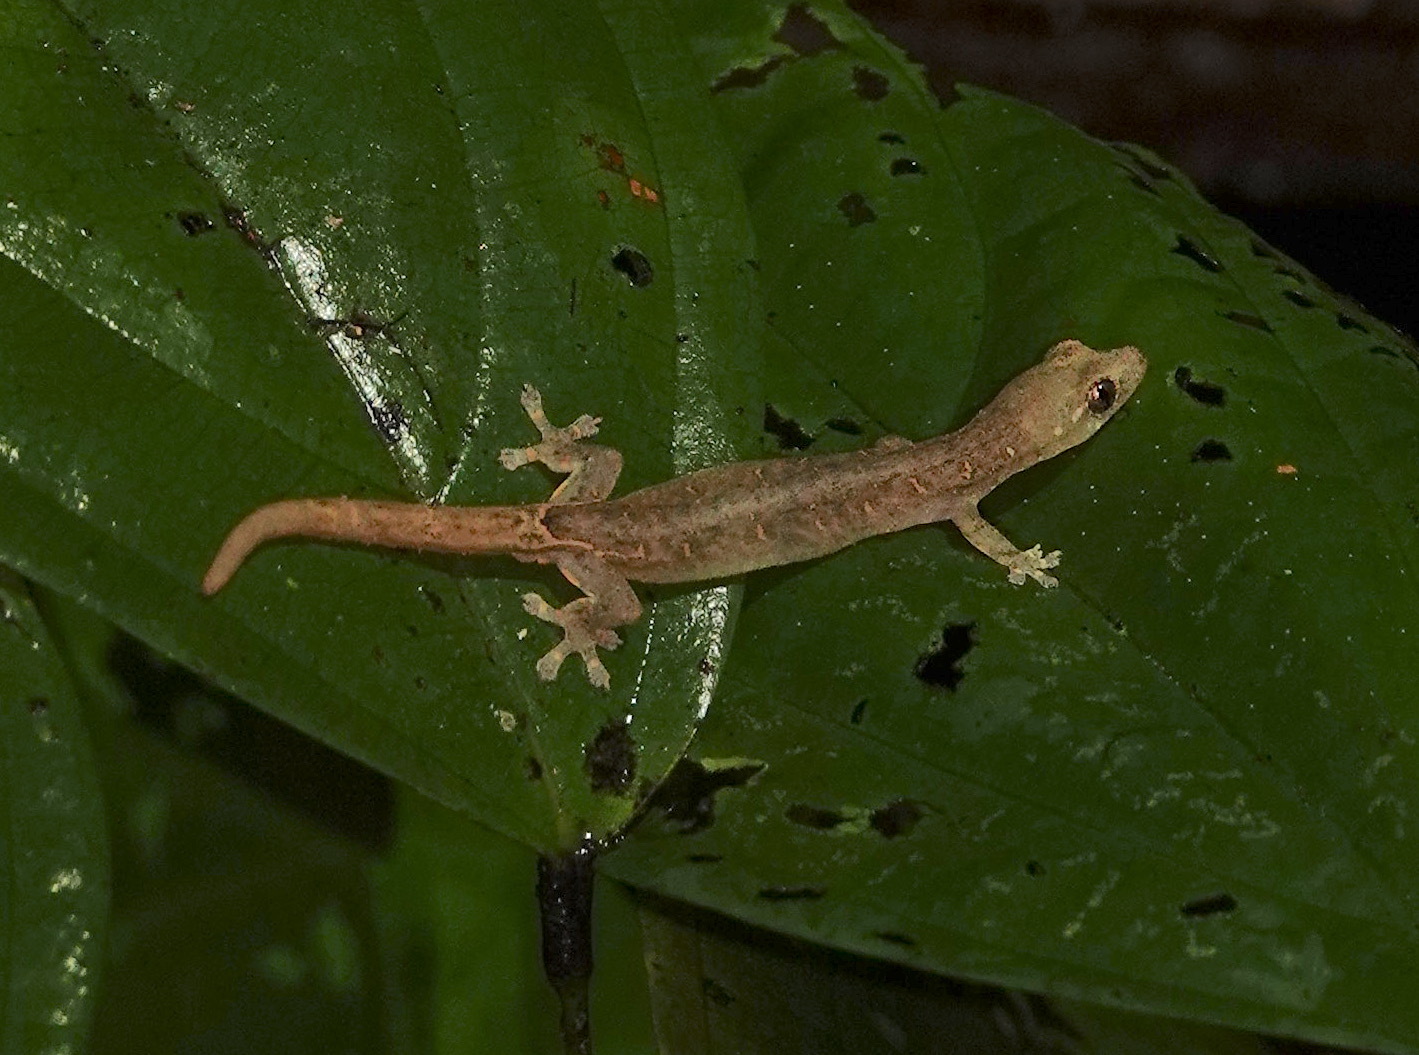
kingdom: Animalia
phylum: Chordata
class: Squamata
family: Gekkonidae
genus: Hemiphyllodactylus
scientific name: Hemiphyllodactylus typus
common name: Common dwarf gecko
